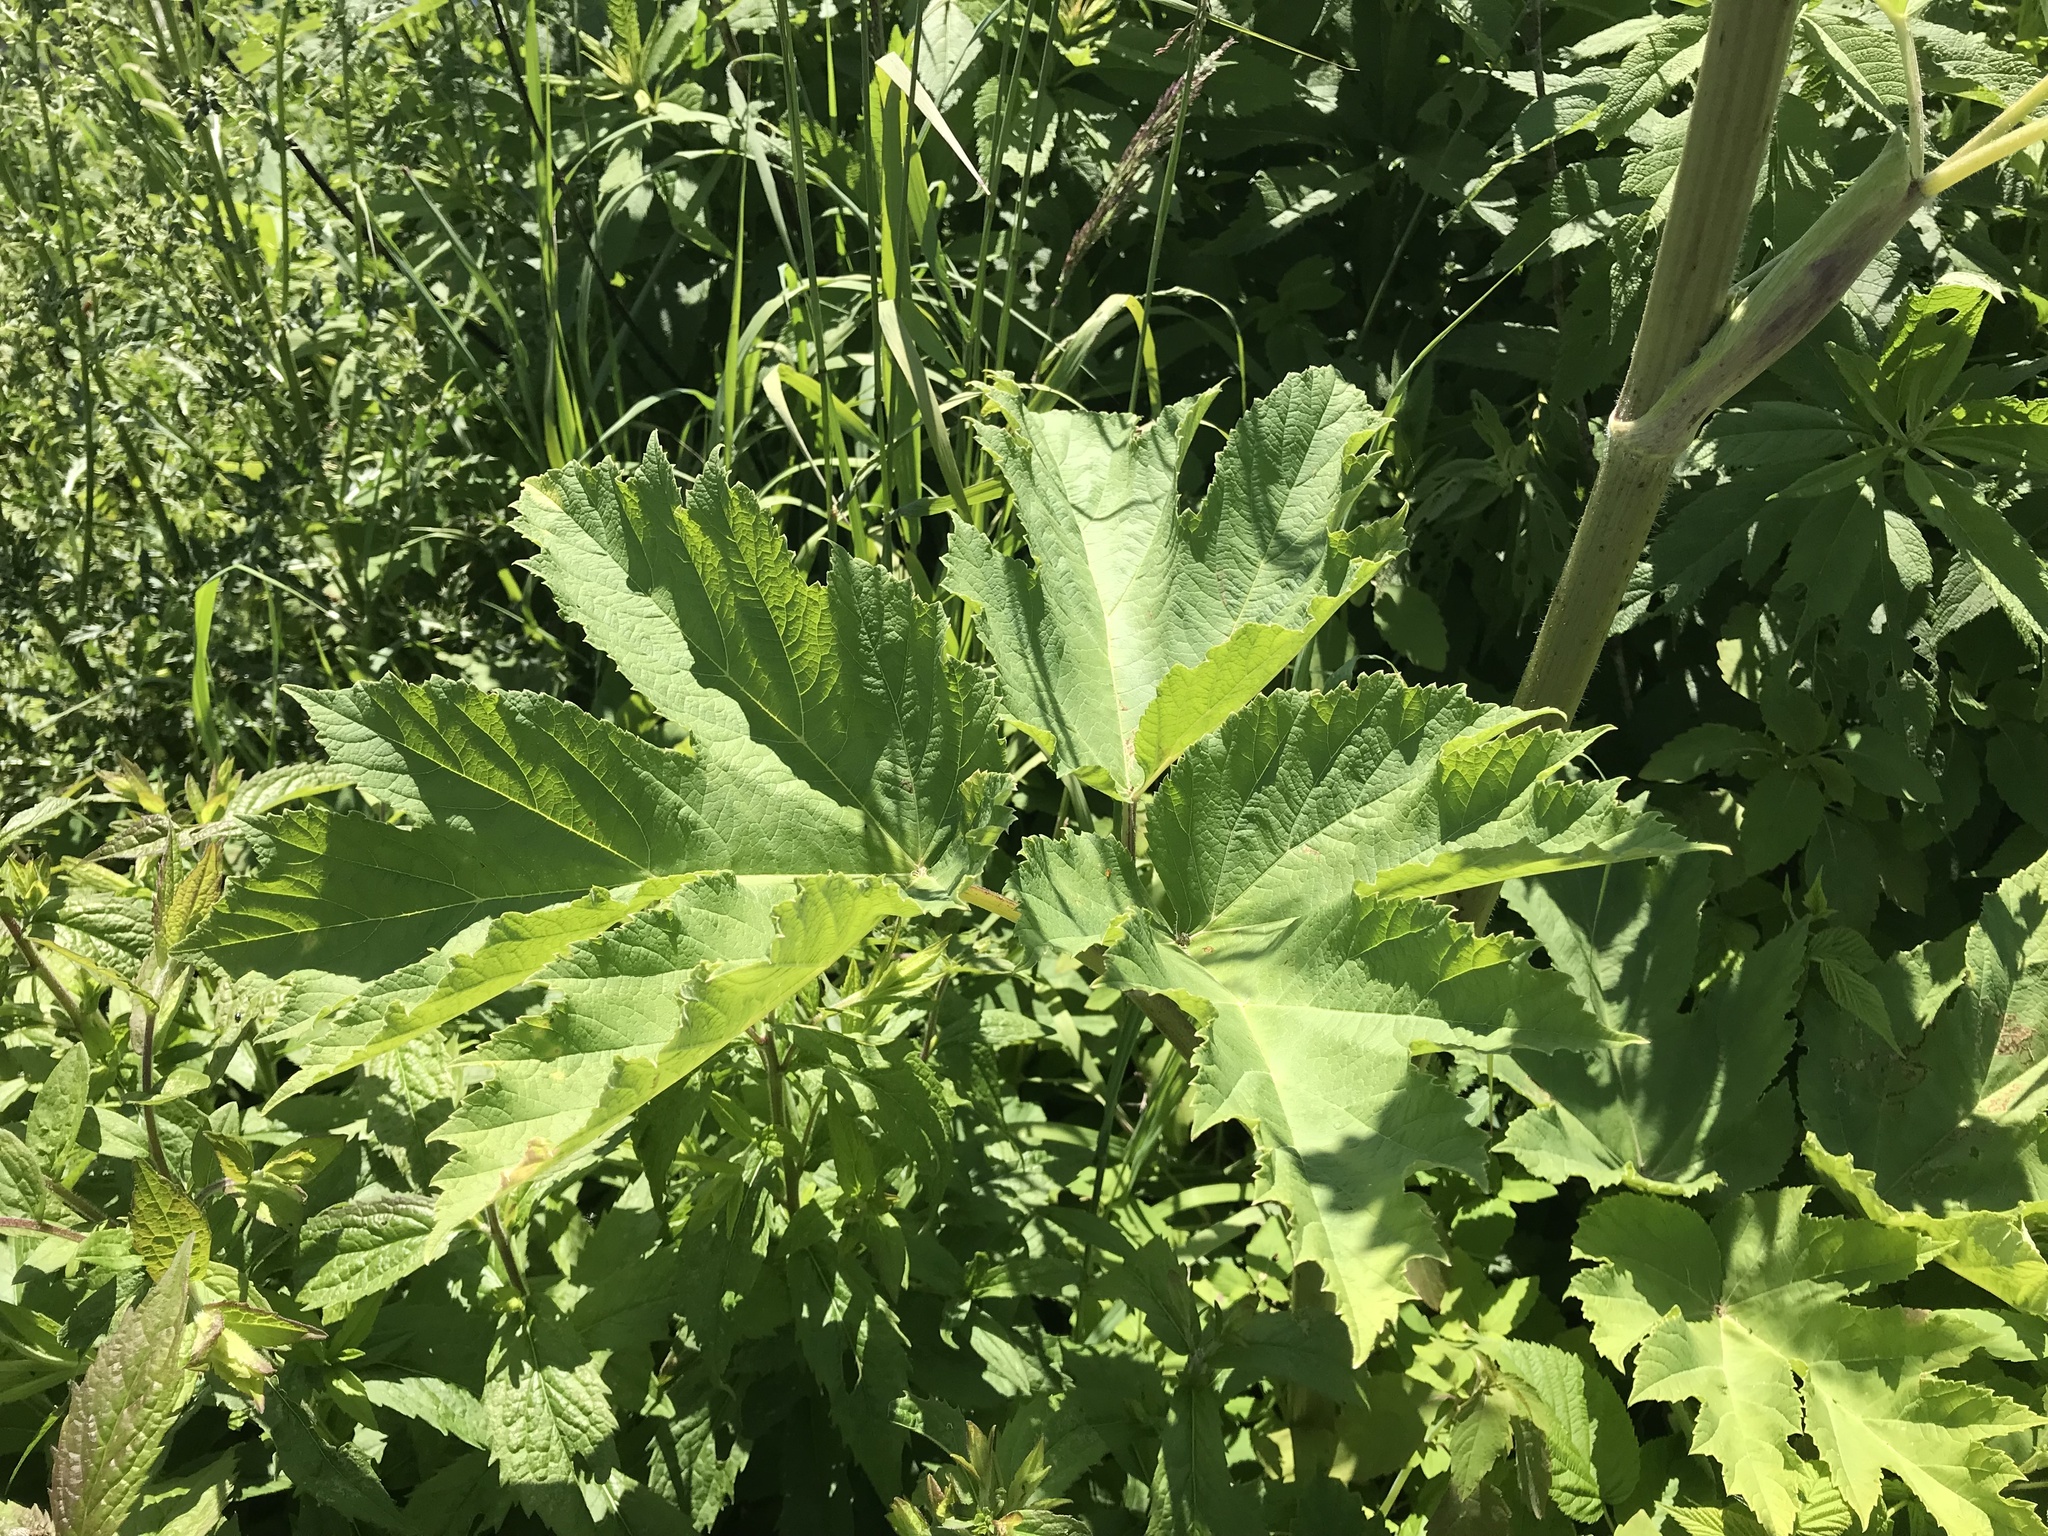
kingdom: Plantae
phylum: Tracheophyta
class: Magnoliopsida
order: Apiales
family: Apiaceae
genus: Heracleum
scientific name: Heracleum maximum
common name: American cow parsnip
